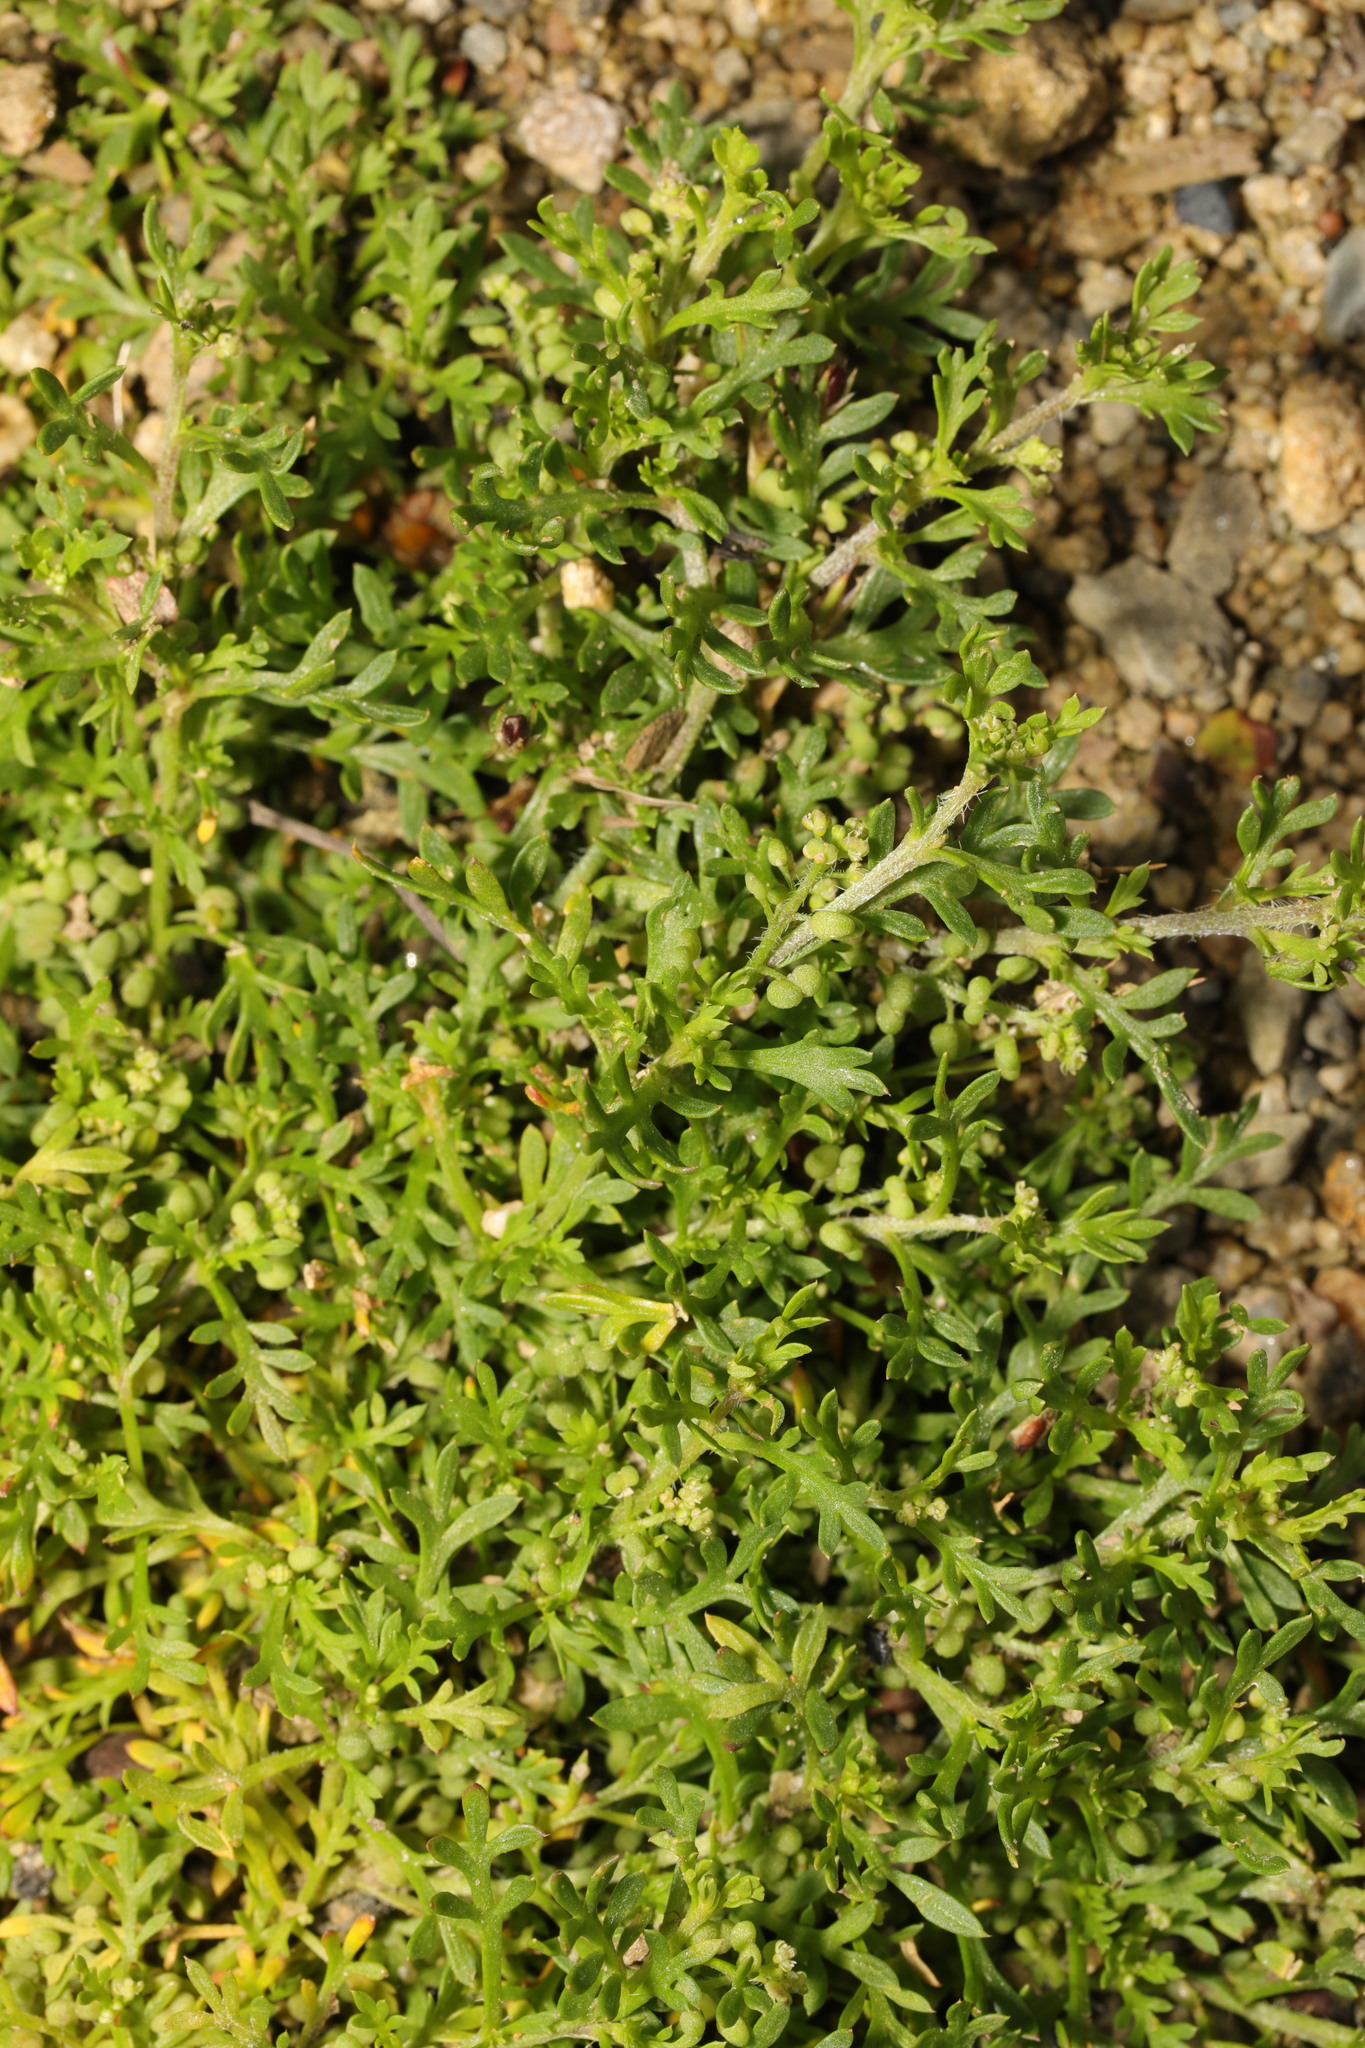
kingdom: Plantae
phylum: Tracheophyta
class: Magnoliopsida
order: Brassicales
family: Brassicaceae
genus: Lepidium
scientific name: Lepidium didymum
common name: Lesser swinecress
